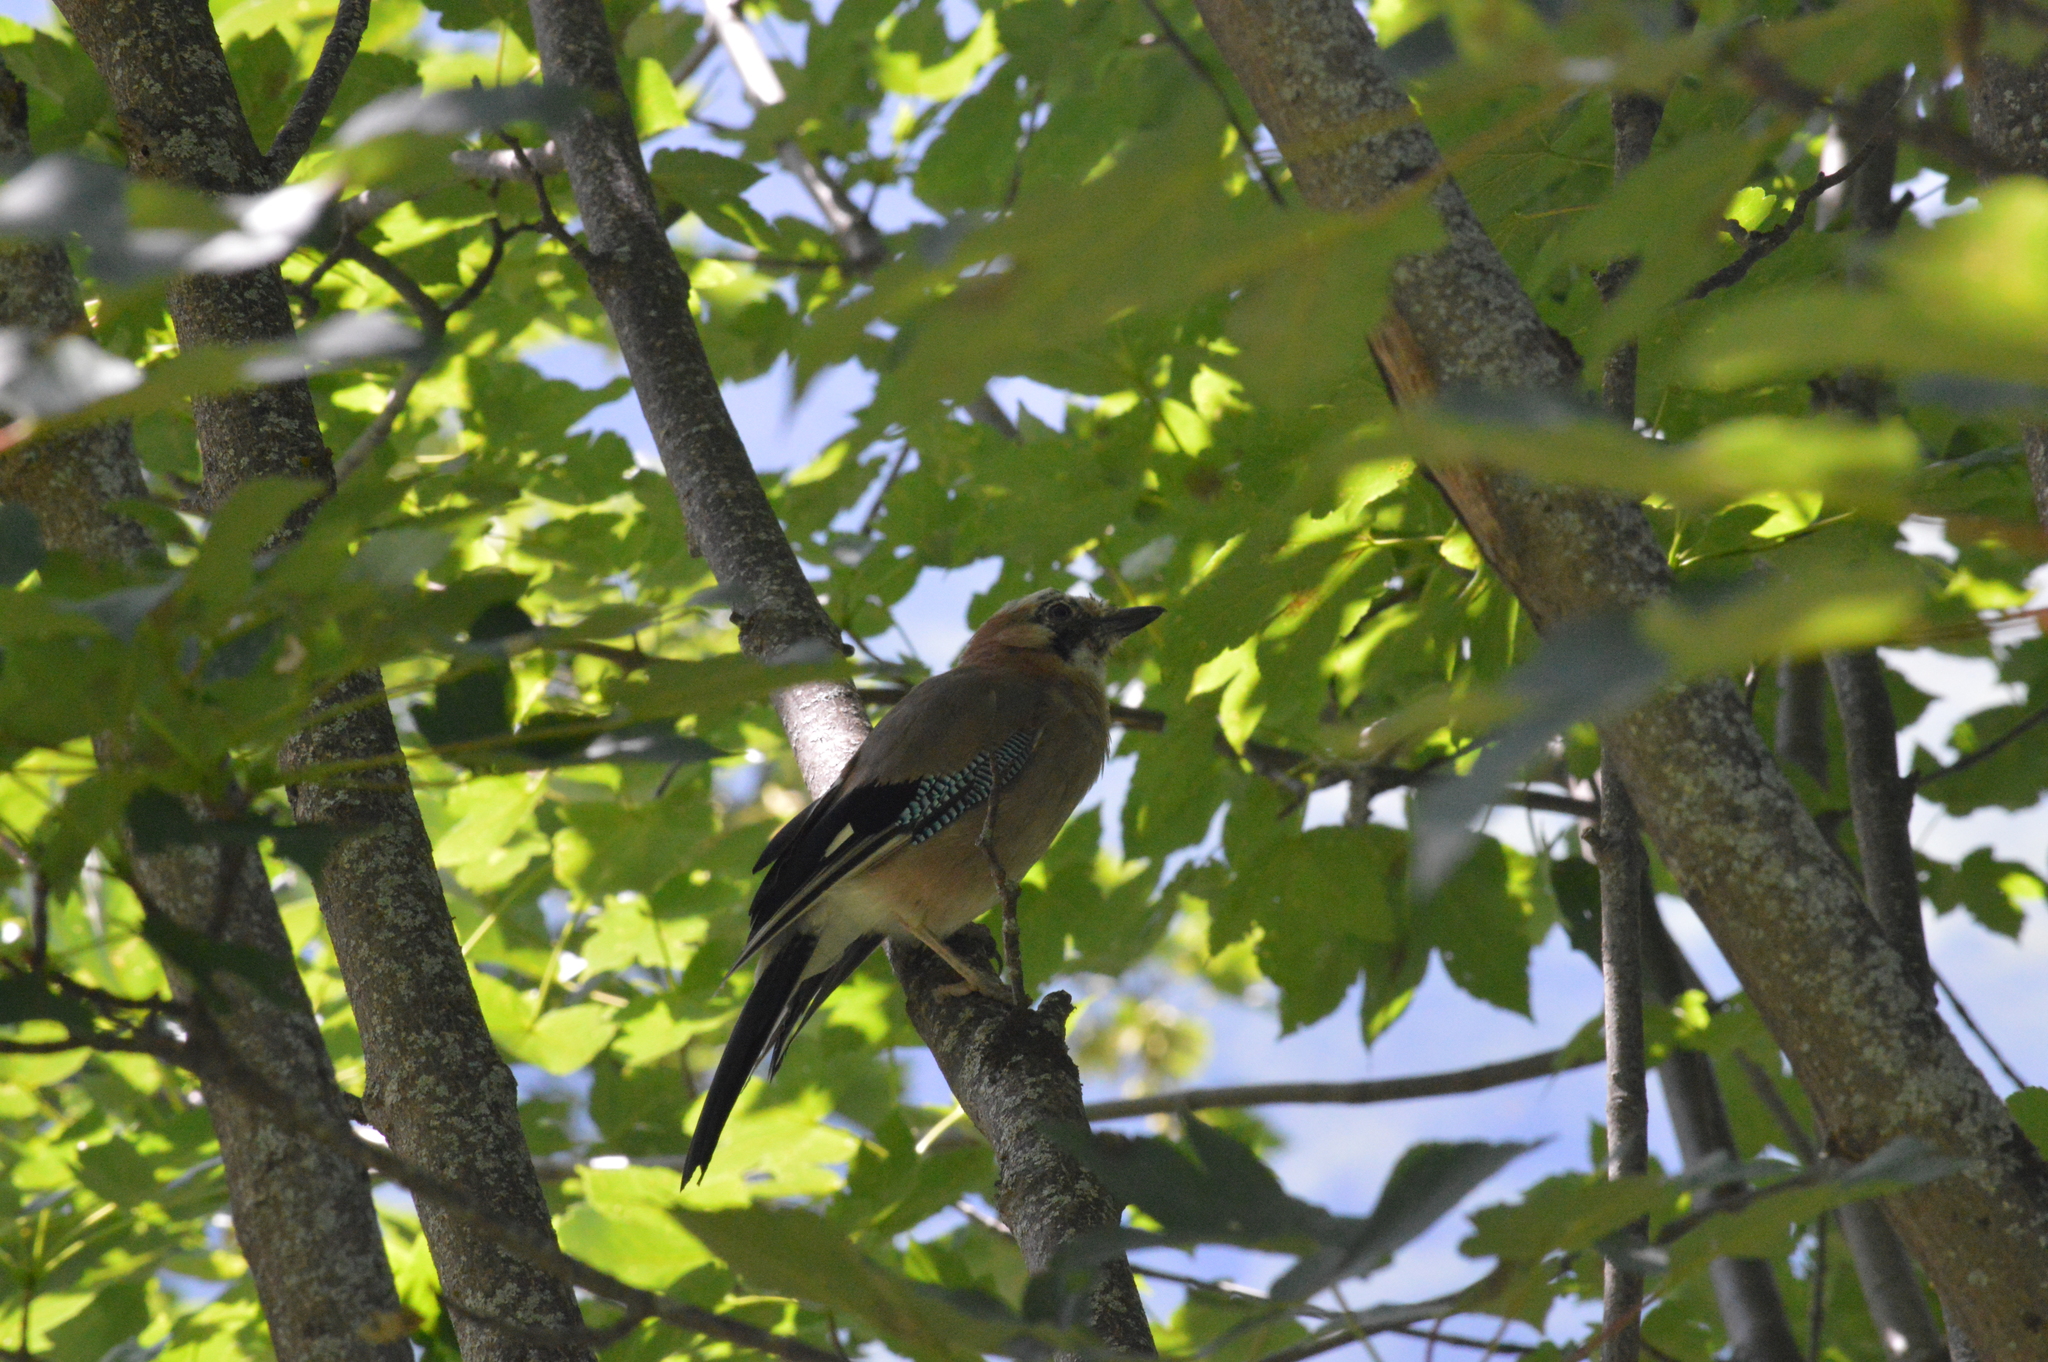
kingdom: Animalia
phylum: Chordata
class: Aves
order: Passeriformes
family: Corvidae
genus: Garrulus
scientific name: Garrulus glandarius
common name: Eurasian jay
